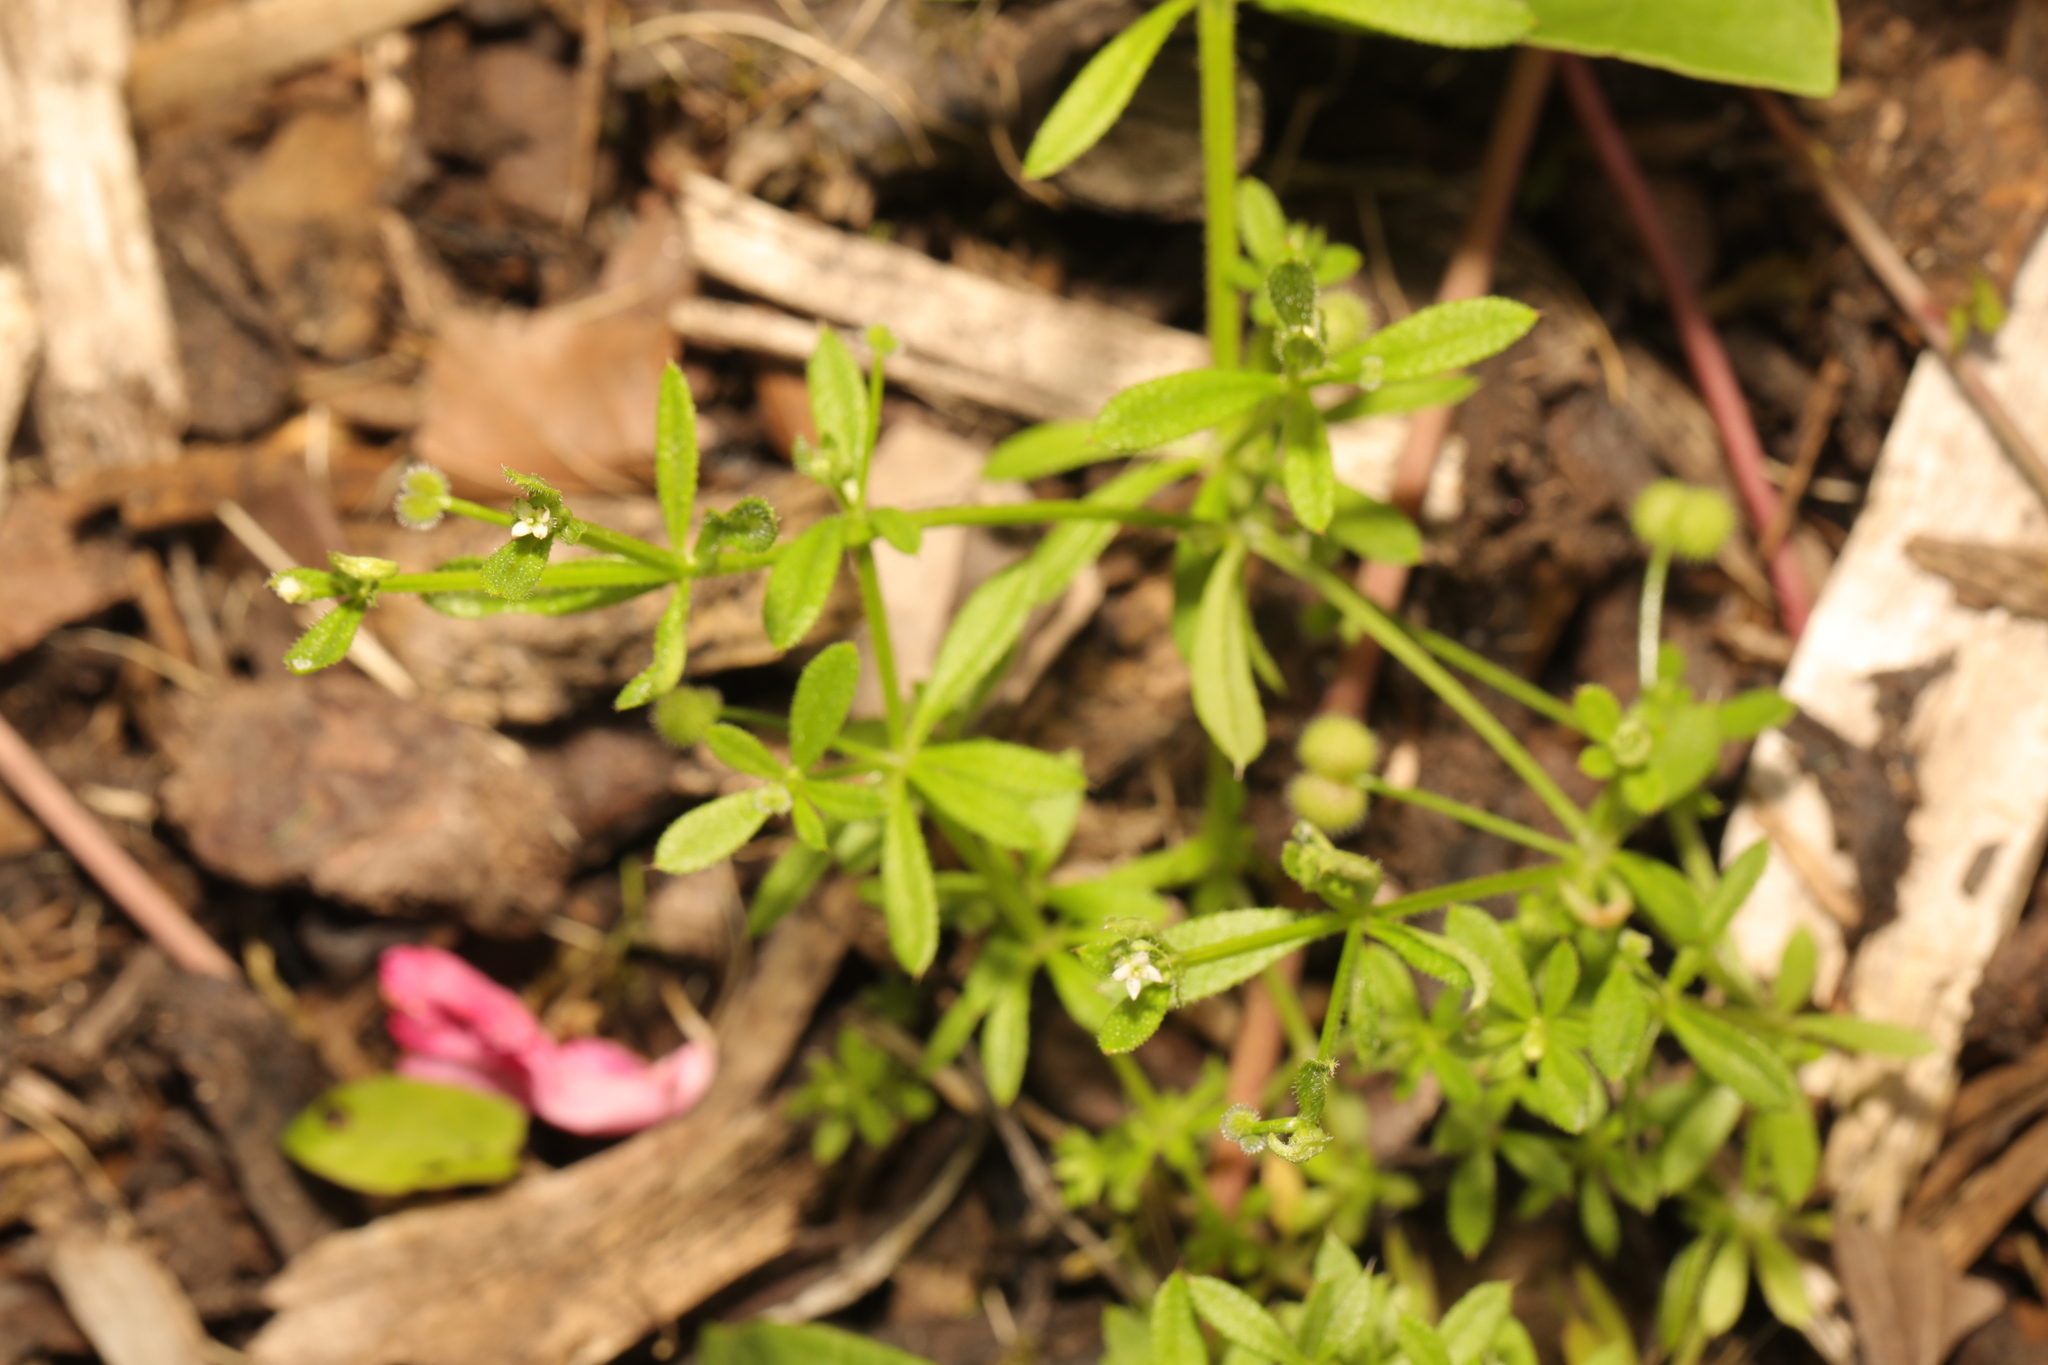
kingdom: Plantae
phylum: Tracheophyta
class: Magnoliopsida
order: Gentianales
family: Rubiaceae
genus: Galium
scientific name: Galium aparine
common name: Cleavers
